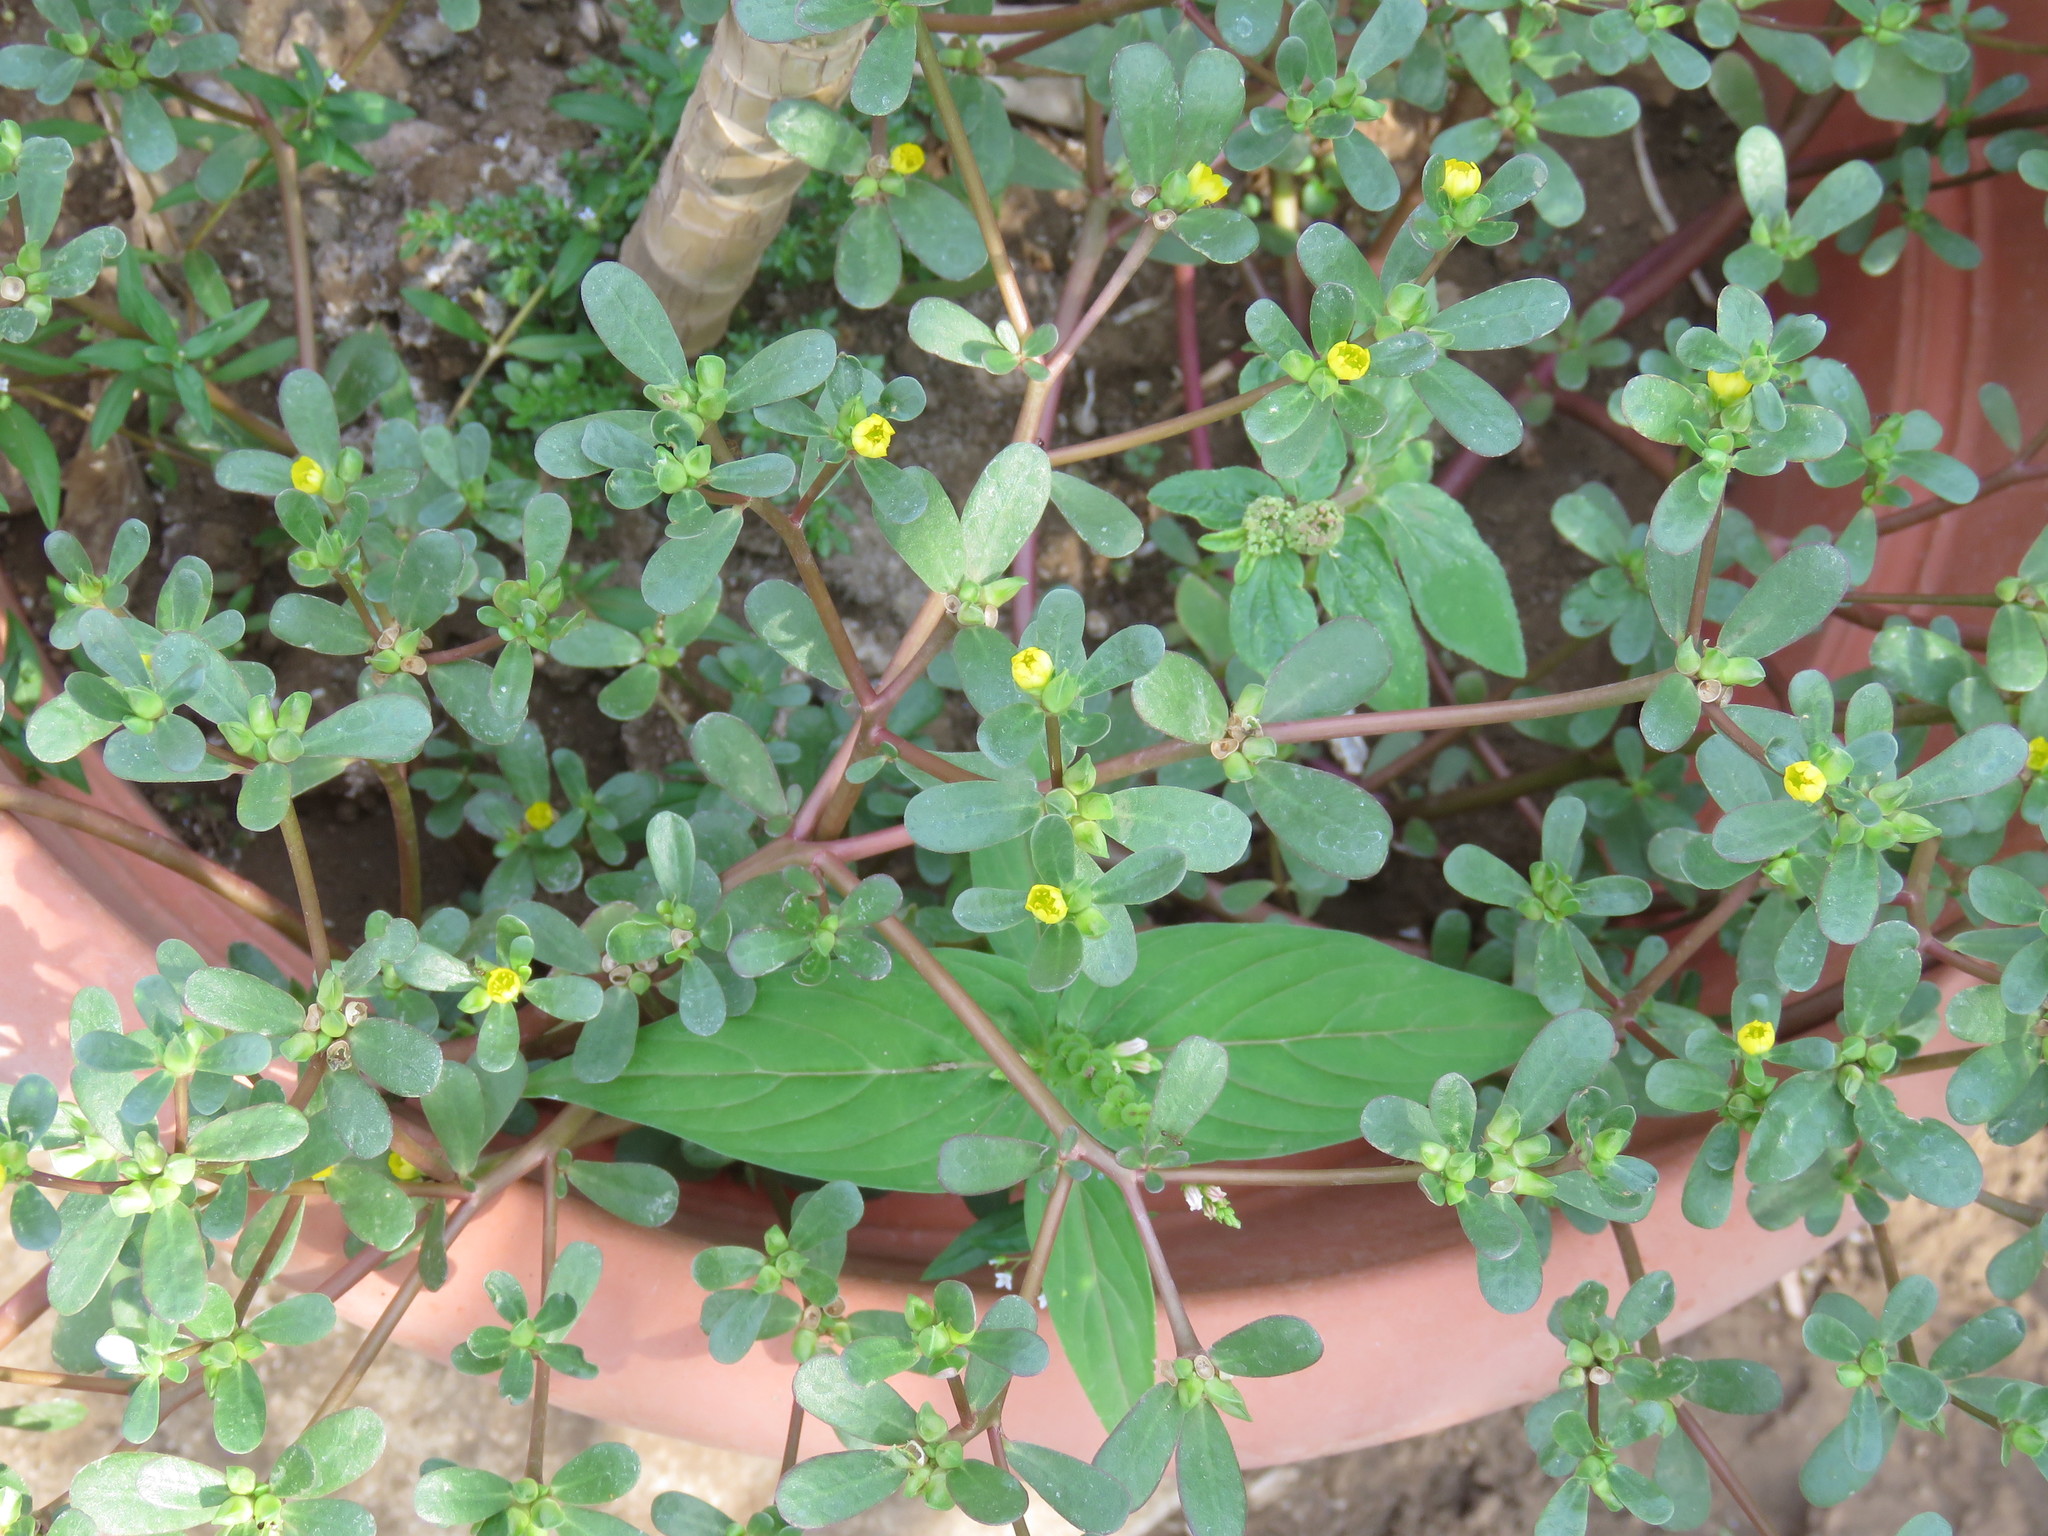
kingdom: Plantae
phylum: Tracheophyta
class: Magnoliopsida
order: Caryophyllales
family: Portulacaceae
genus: Portulaca
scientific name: Portulaca oleracea
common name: Common purslane
